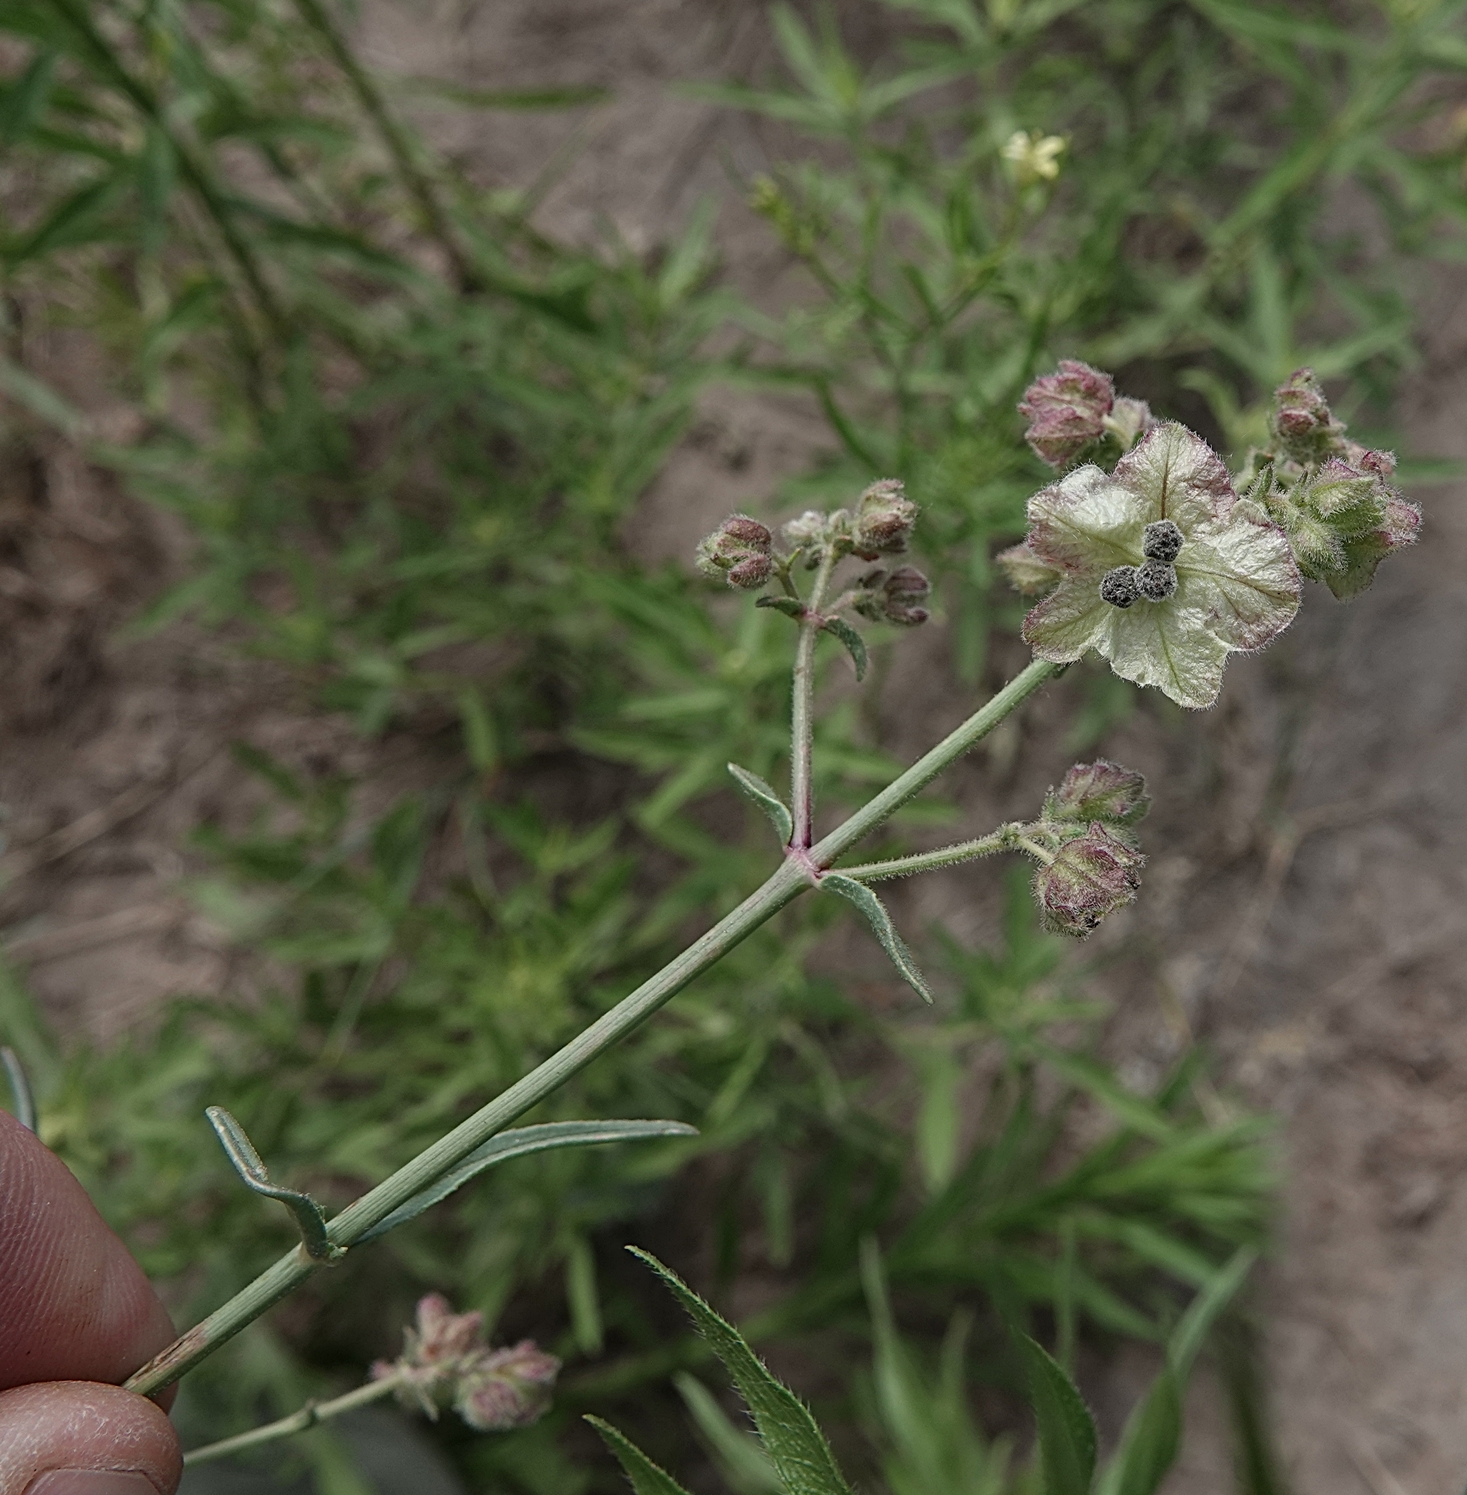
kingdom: Plantae
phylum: Tracheophyta
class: Magnoliopsida
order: Caryophyllales
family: Nyctaginaceae
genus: Mirabilis
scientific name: Mirabilis nyctaginea
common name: Umbrella wort
